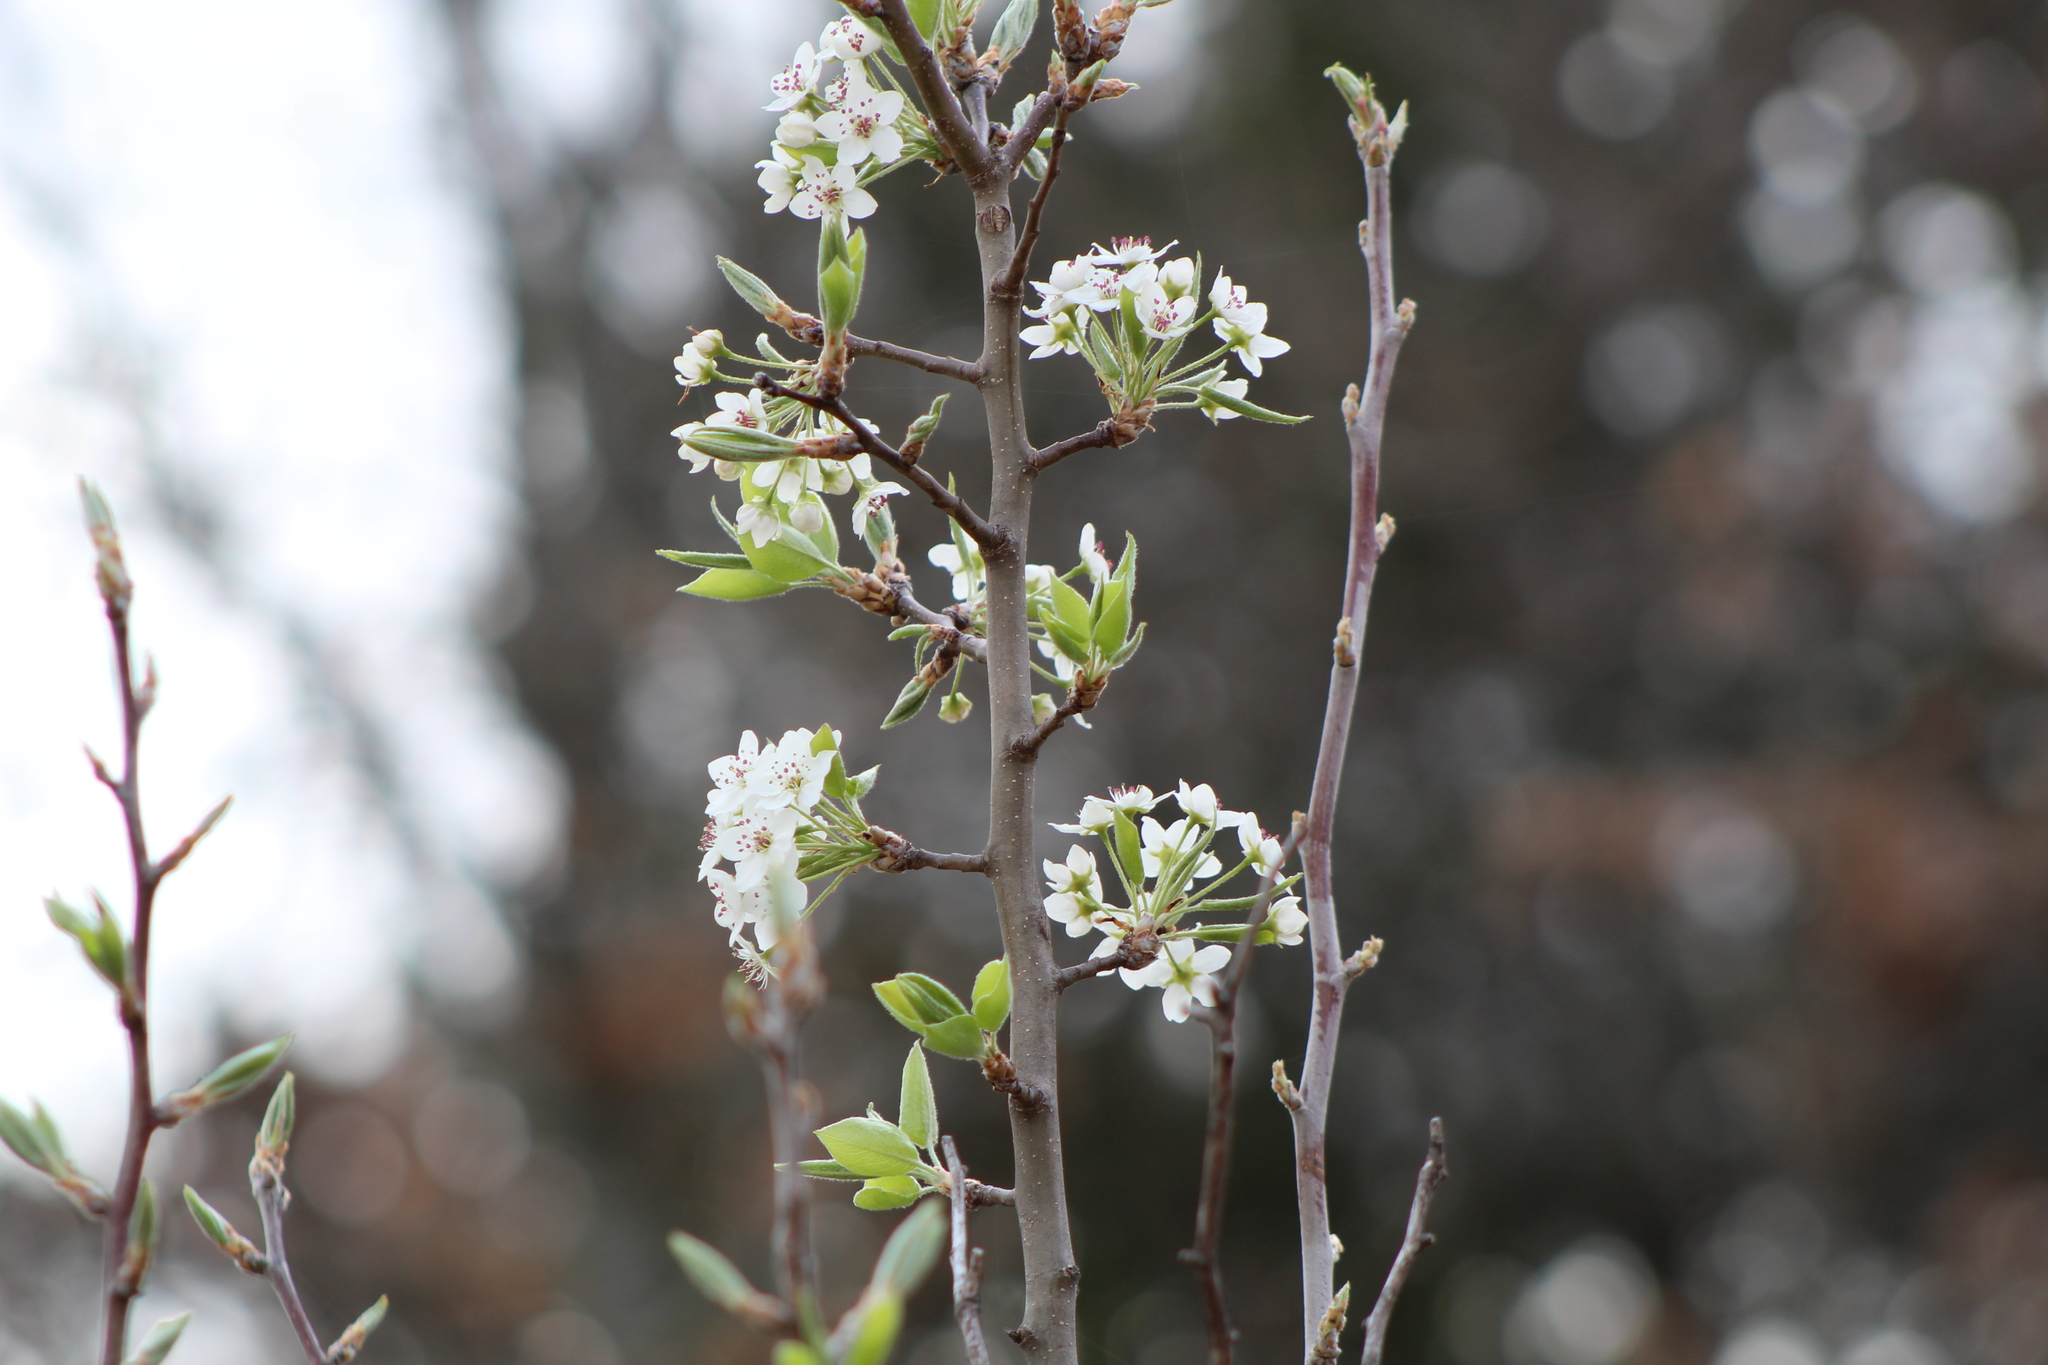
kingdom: Plantae
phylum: Tracheophyta
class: Magnoliopsida
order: Rosales
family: Rosaceae
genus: Pyrus
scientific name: Pyrus calleryana
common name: Callery pear
